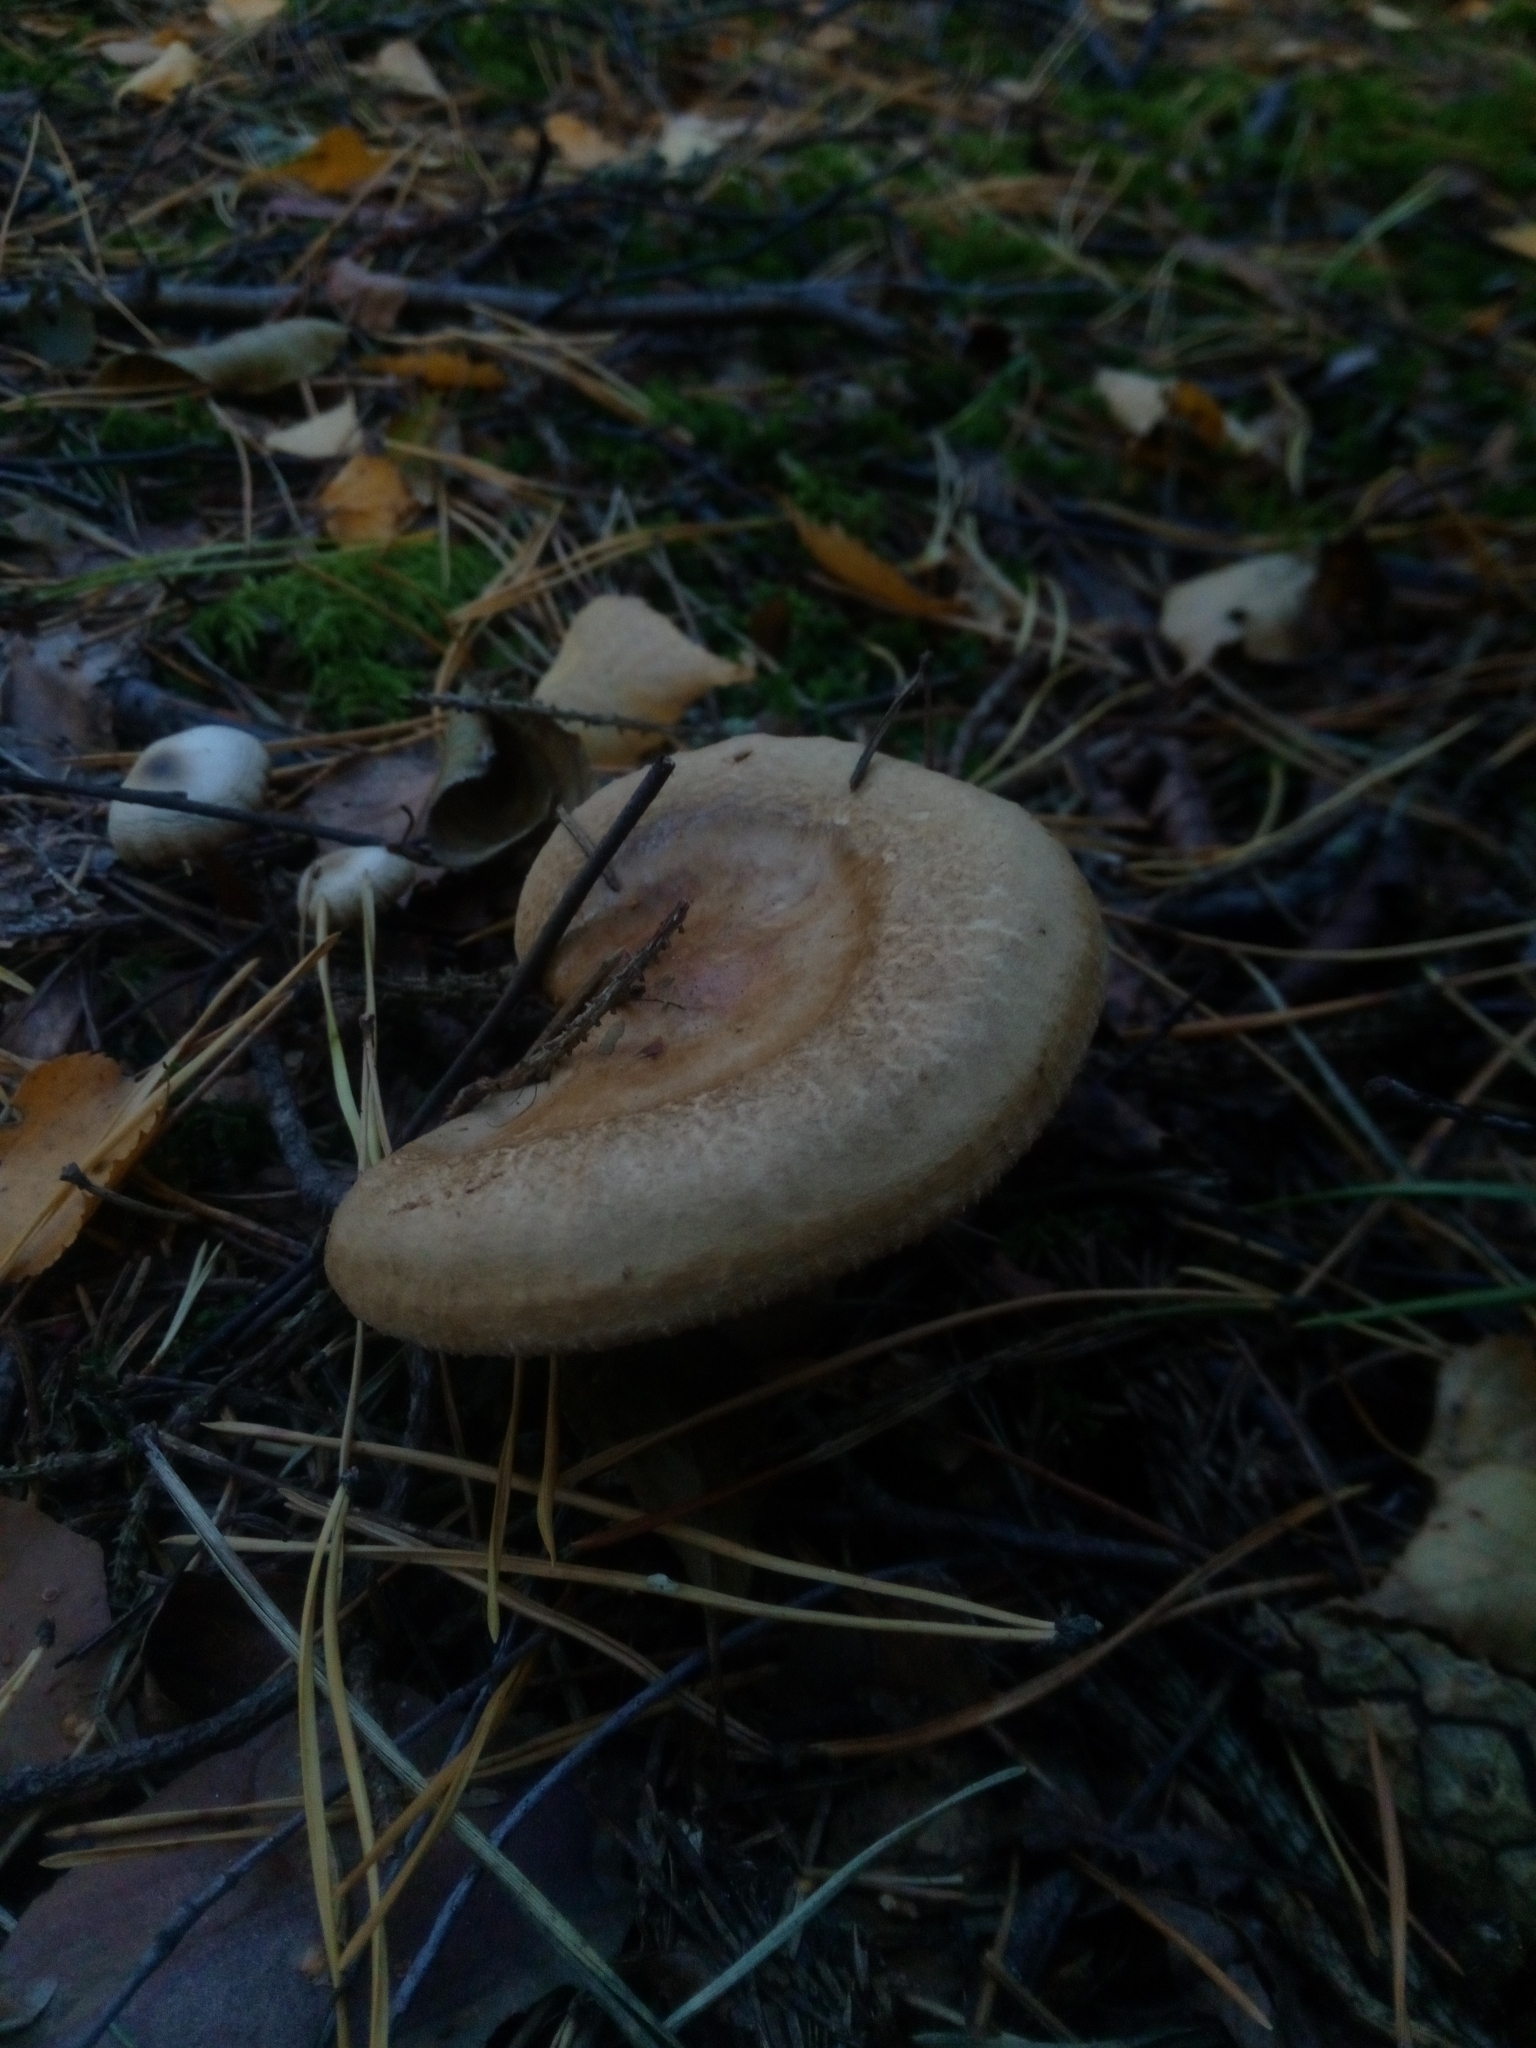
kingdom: Fungi
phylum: Basidiomycota
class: Agaricomycetes
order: Boletales
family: Paxillaceae
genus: Paxillus
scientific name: Paxillus involutus
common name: Brown roll rim
